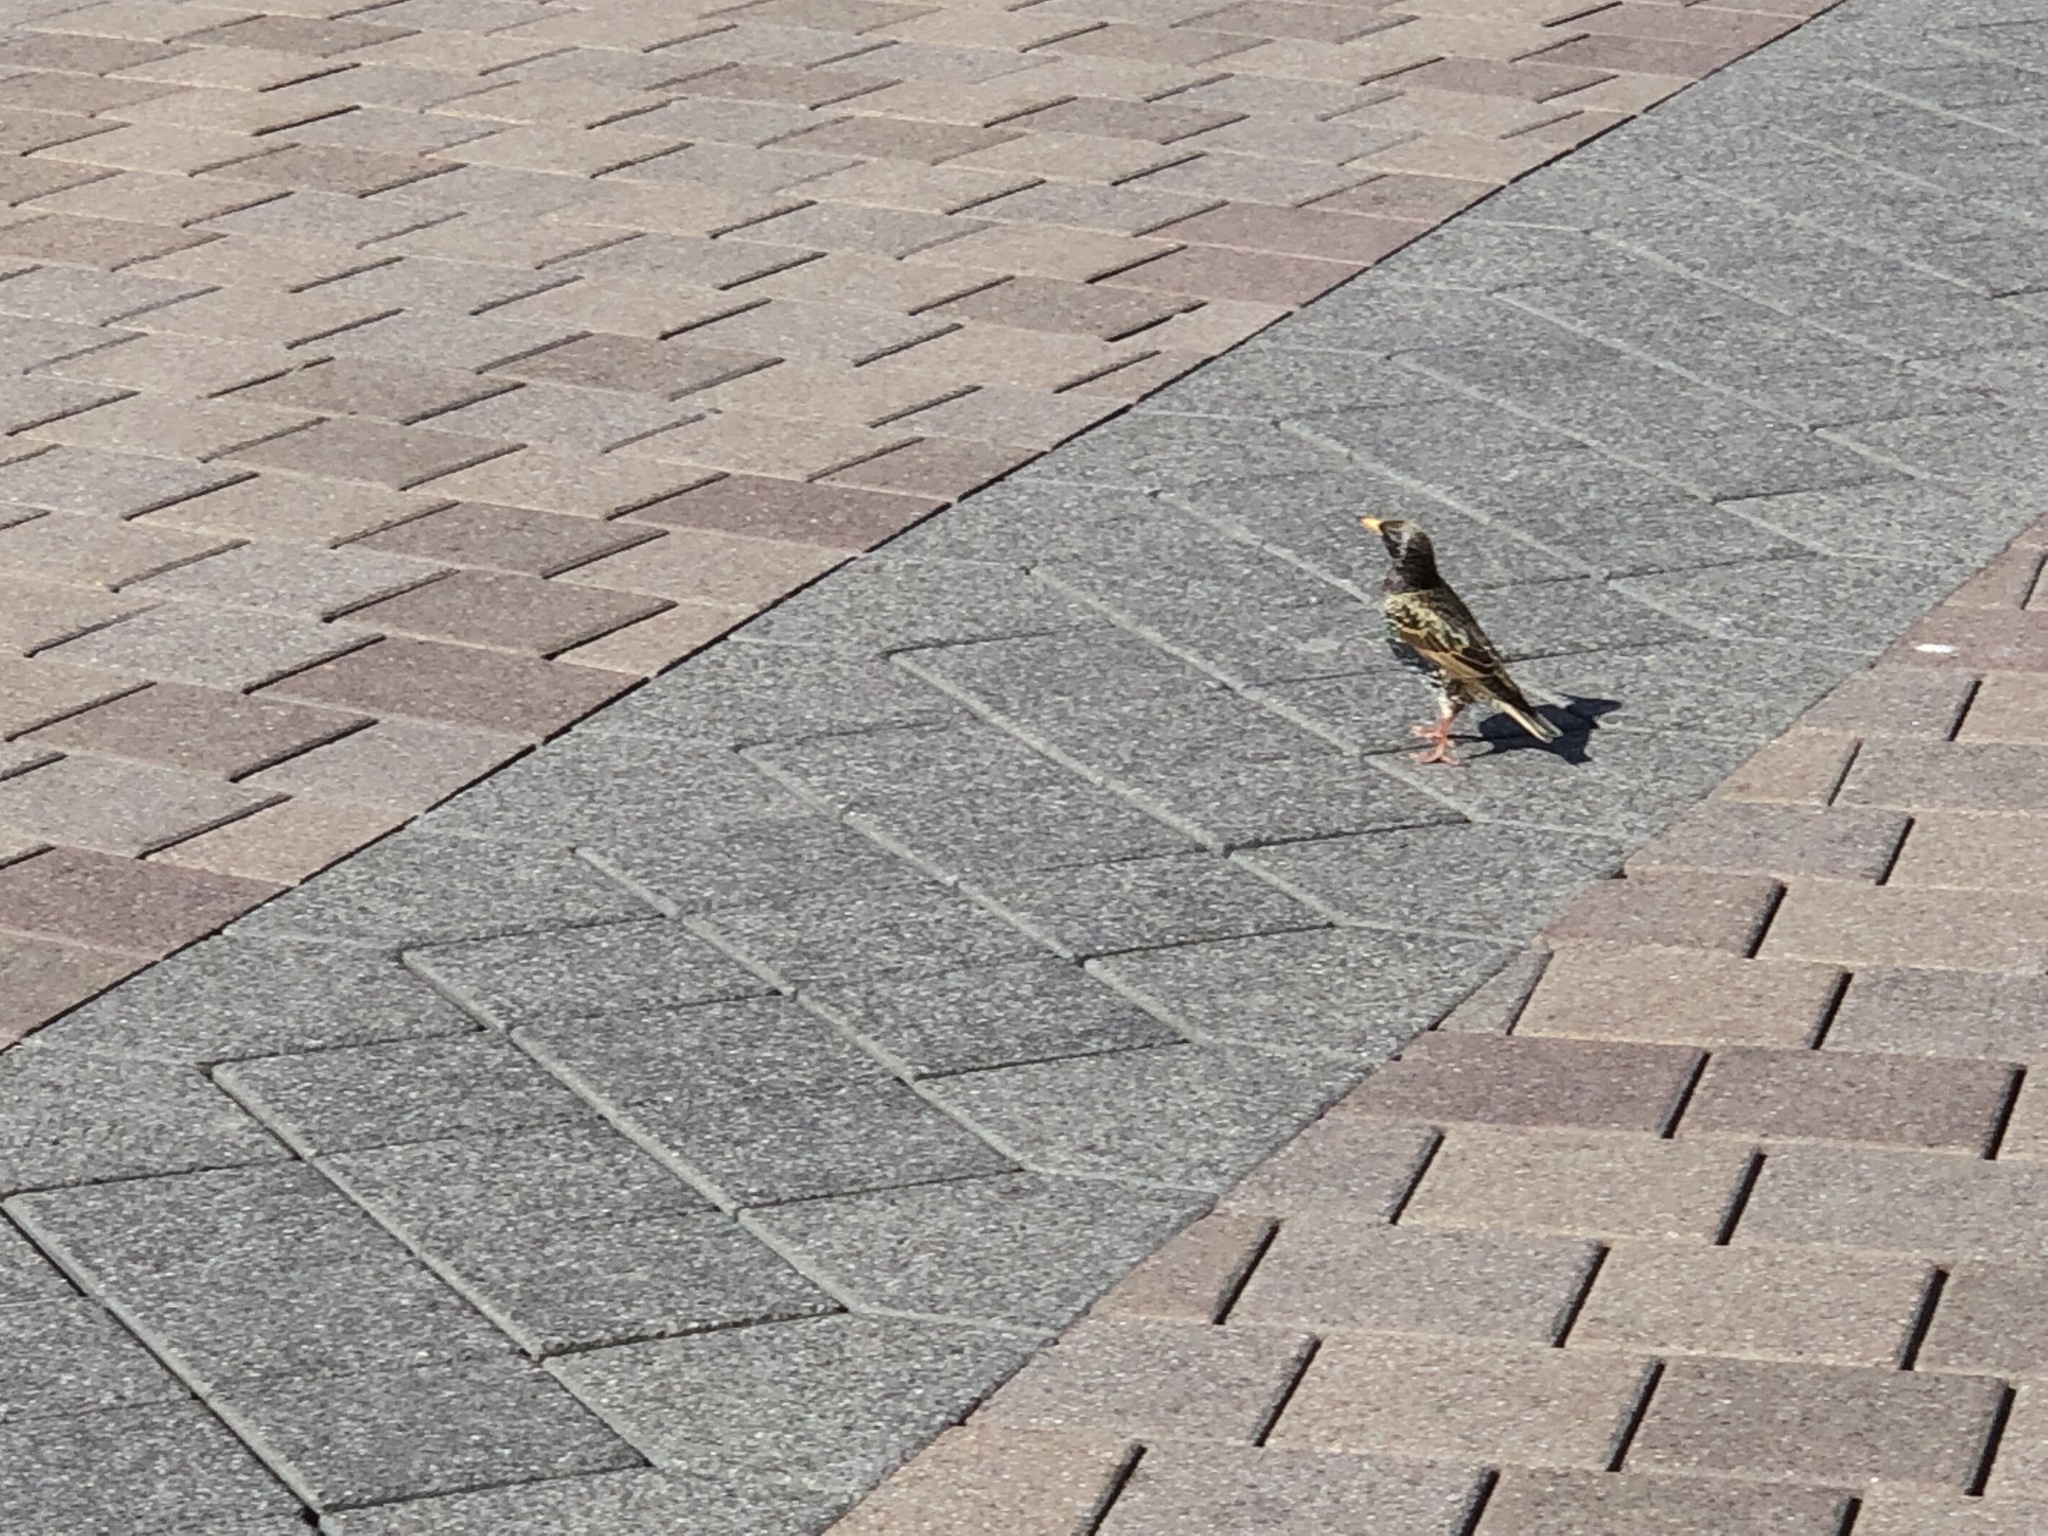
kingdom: Animalia
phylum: Chordata
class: Aves
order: Passeriformes
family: Sturnidae
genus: Sturnus
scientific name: Sturnus vulgaris
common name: Common starling
